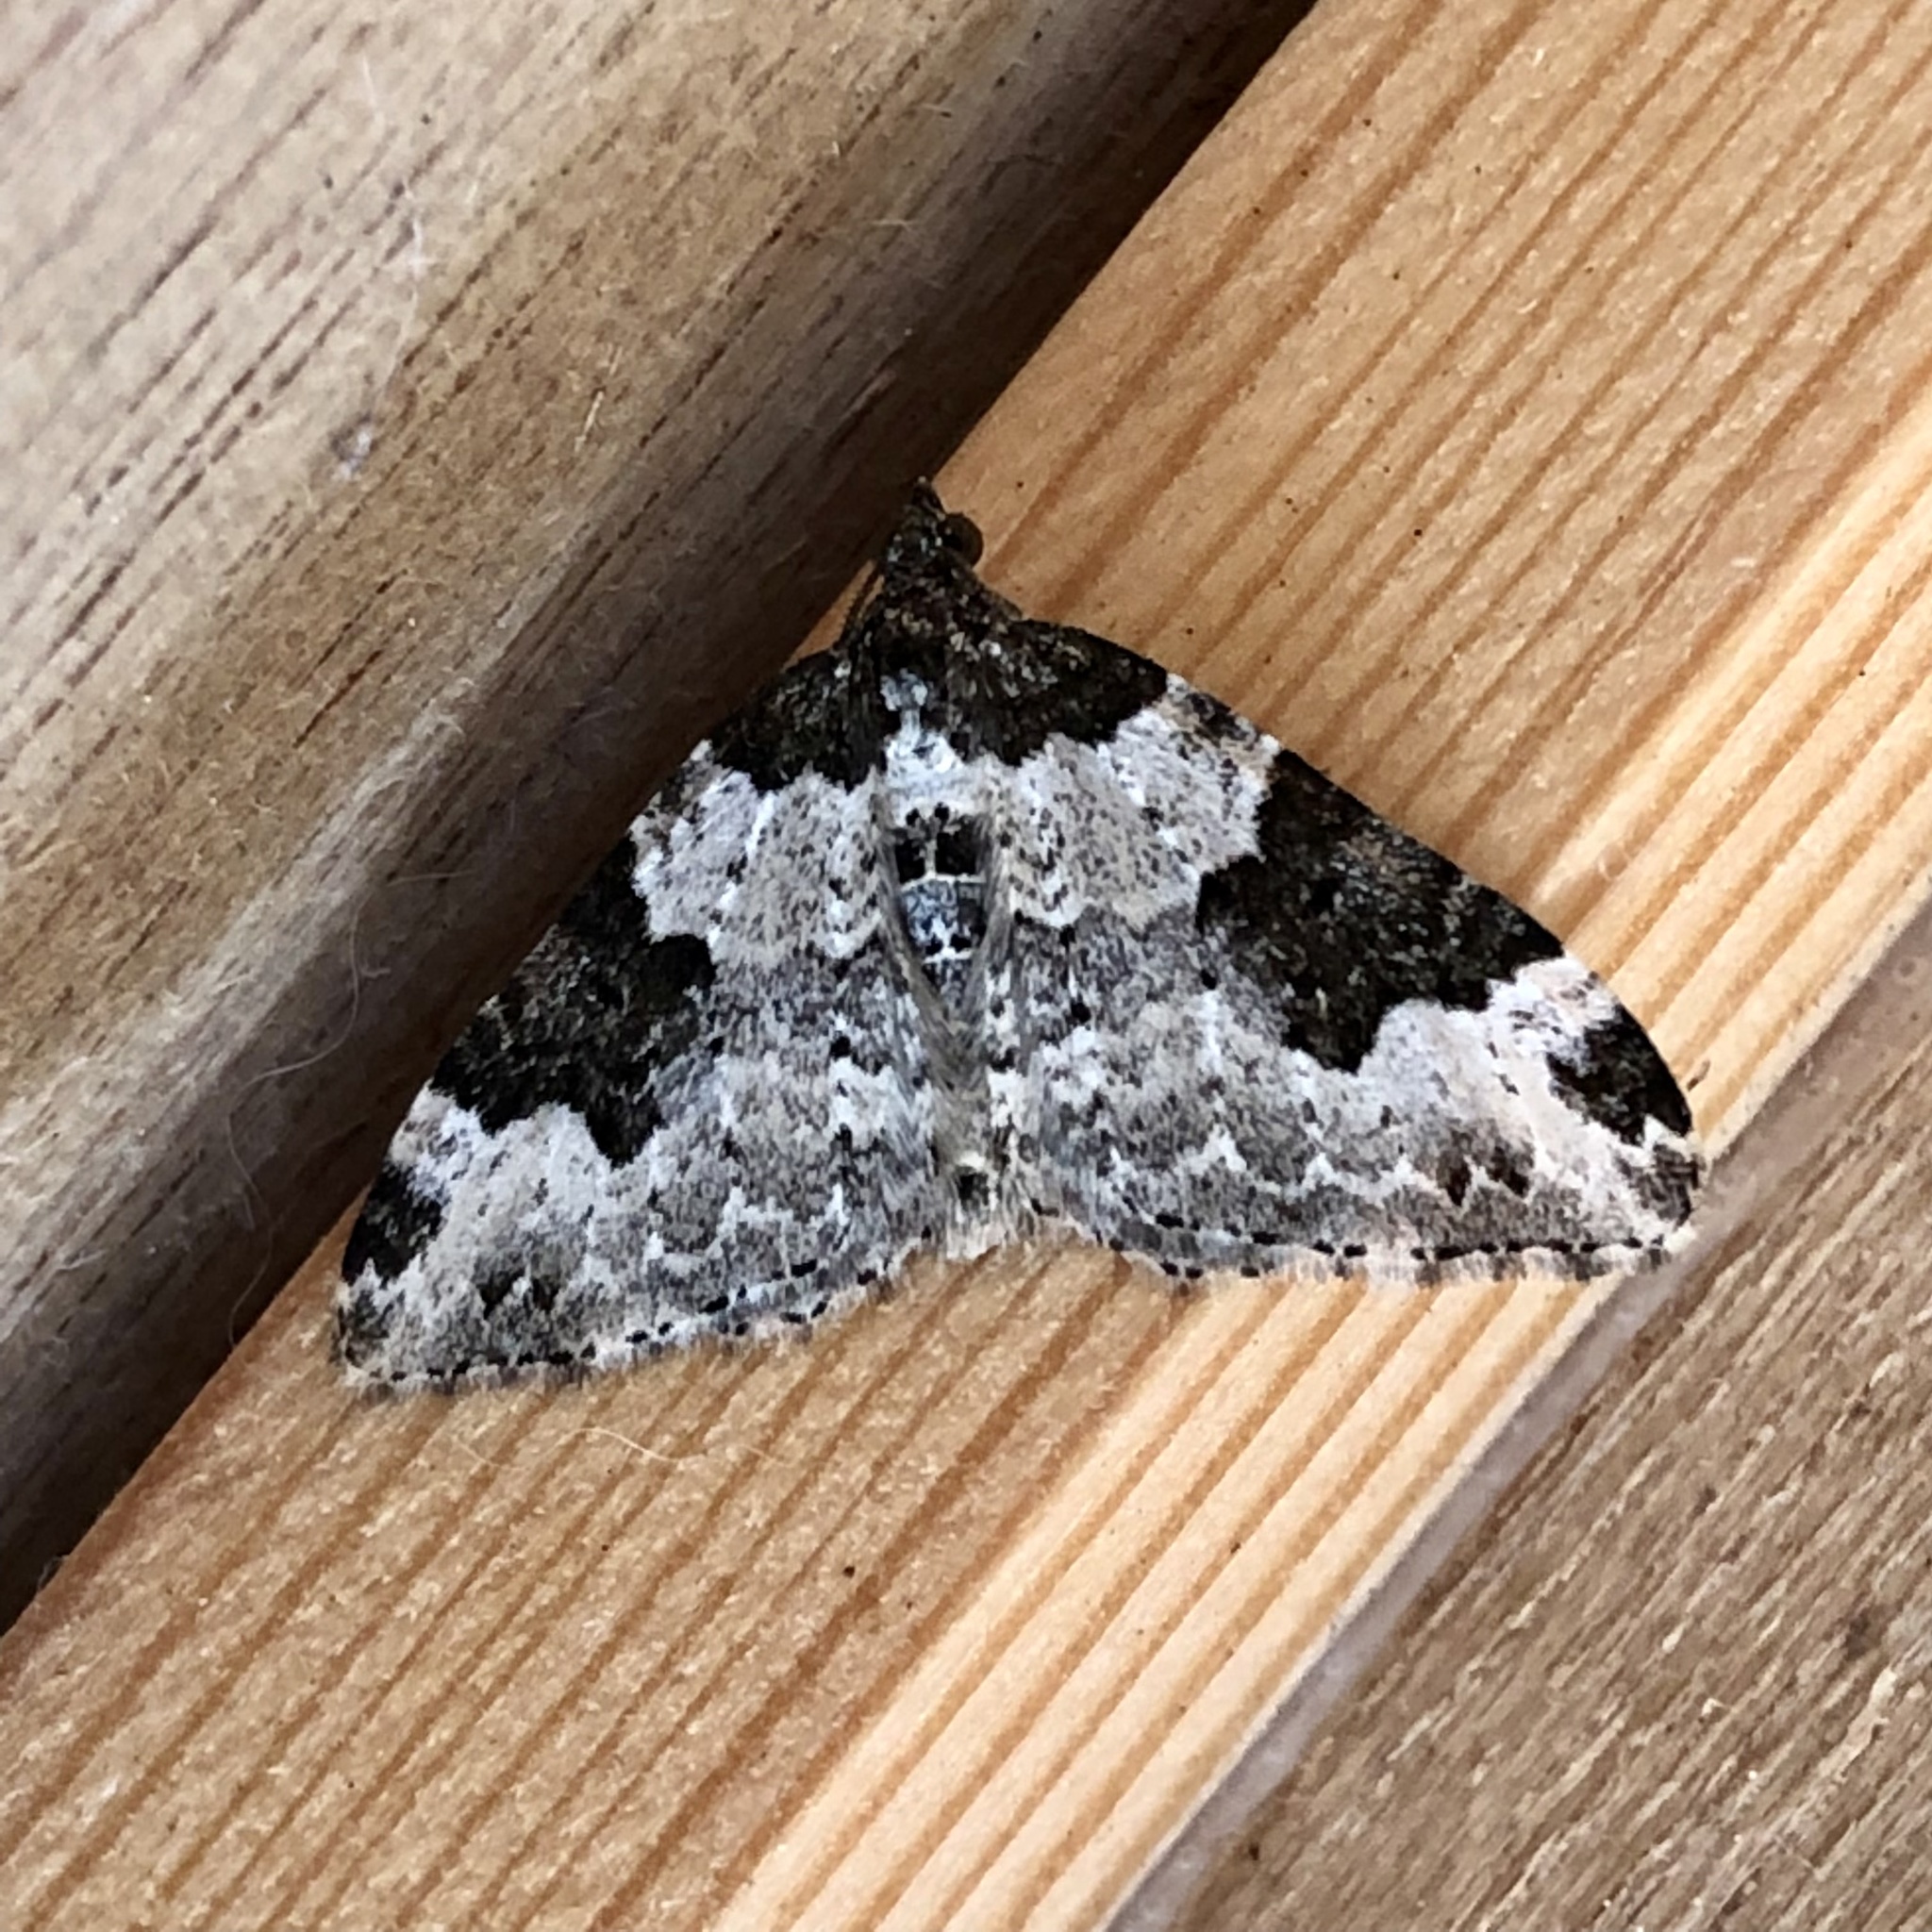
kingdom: Animalia
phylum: Arthropoda
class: Insecta
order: Lepidoptera
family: Geometridae
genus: Xanthorhoe
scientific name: Xanthorhoe fluctuata
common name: Garden carpet
